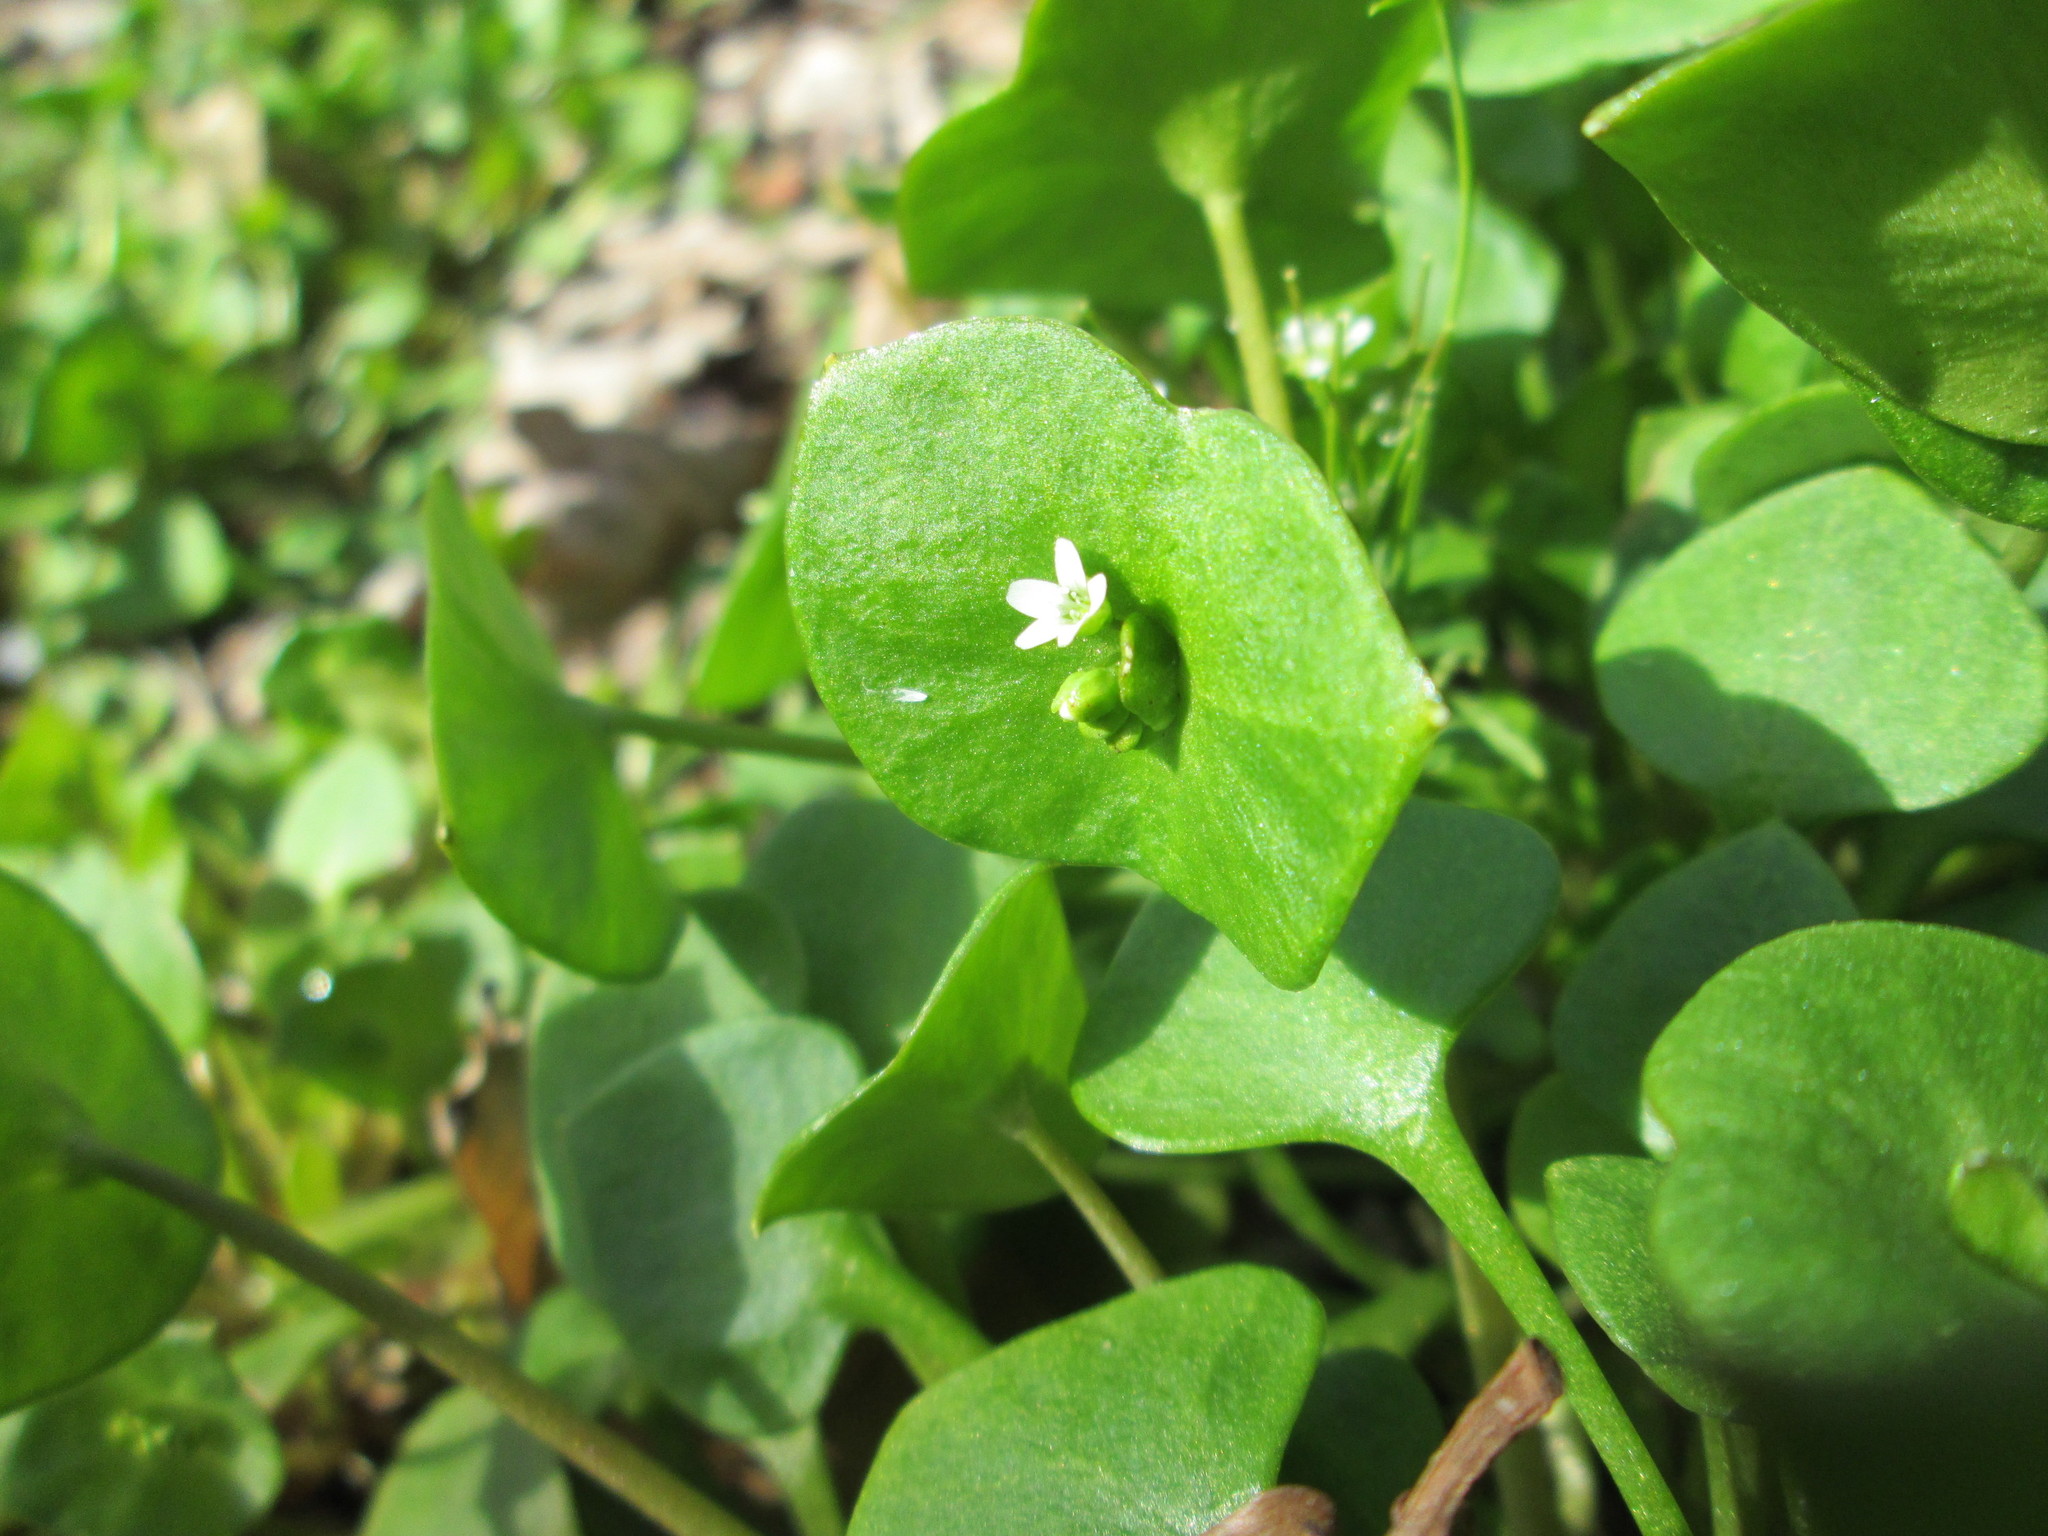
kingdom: Plantae
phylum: Tracheophyta
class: Magnoliopsida
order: Caryophyllales
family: Montiaceae
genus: Claytonia
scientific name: Claytonia perfoliata
